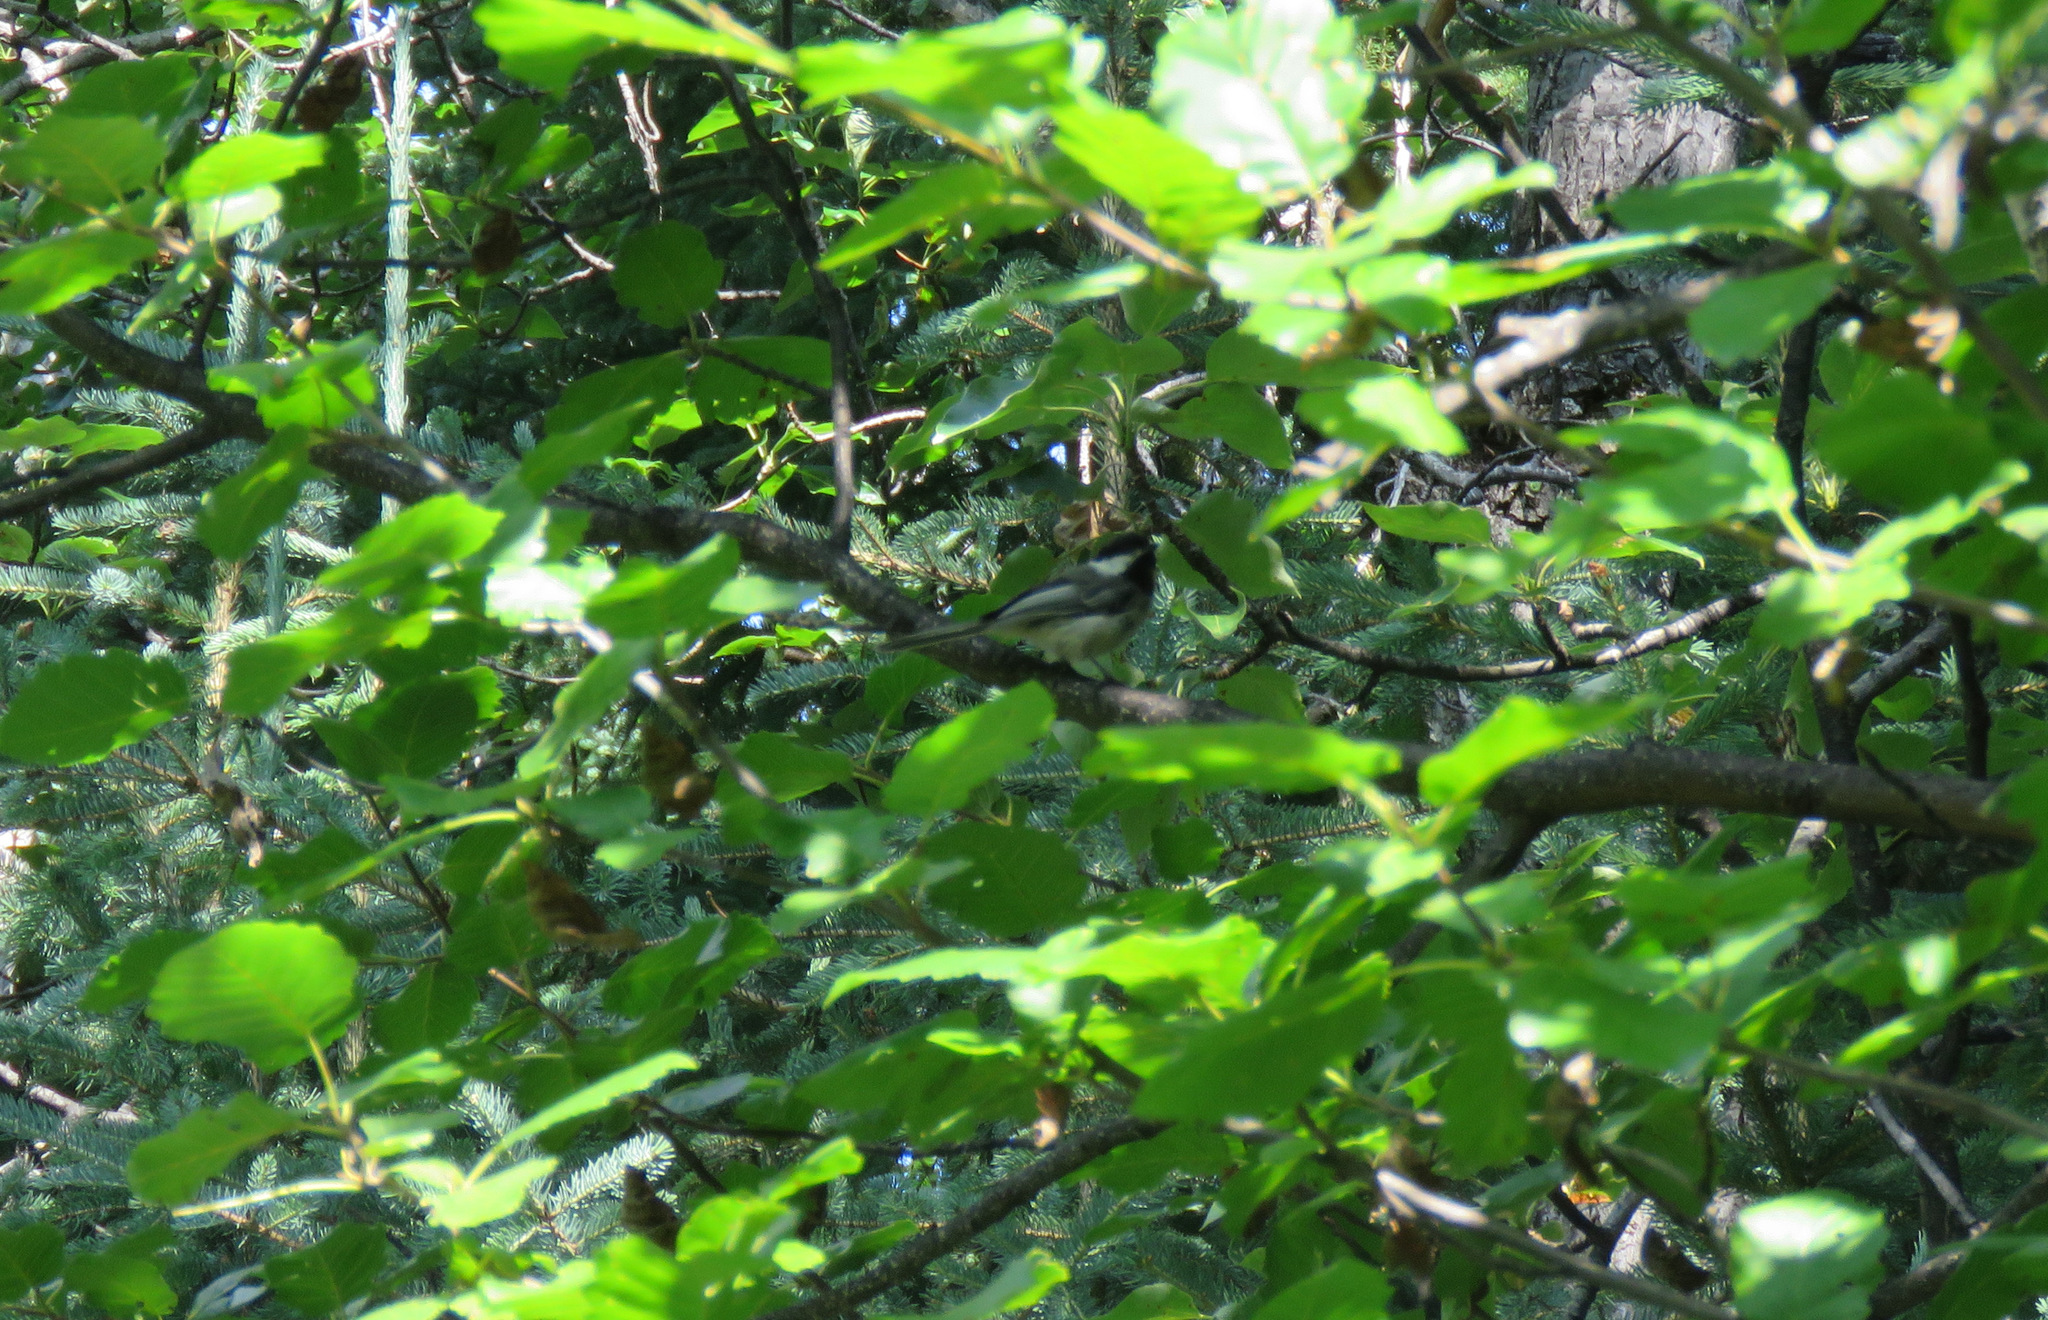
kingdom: Animalia
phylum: Chordata
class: Aves
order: Passeriformes
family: Paridae
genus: Poecile
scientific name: Poecile atricapillus
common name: Black-capped chickadee
